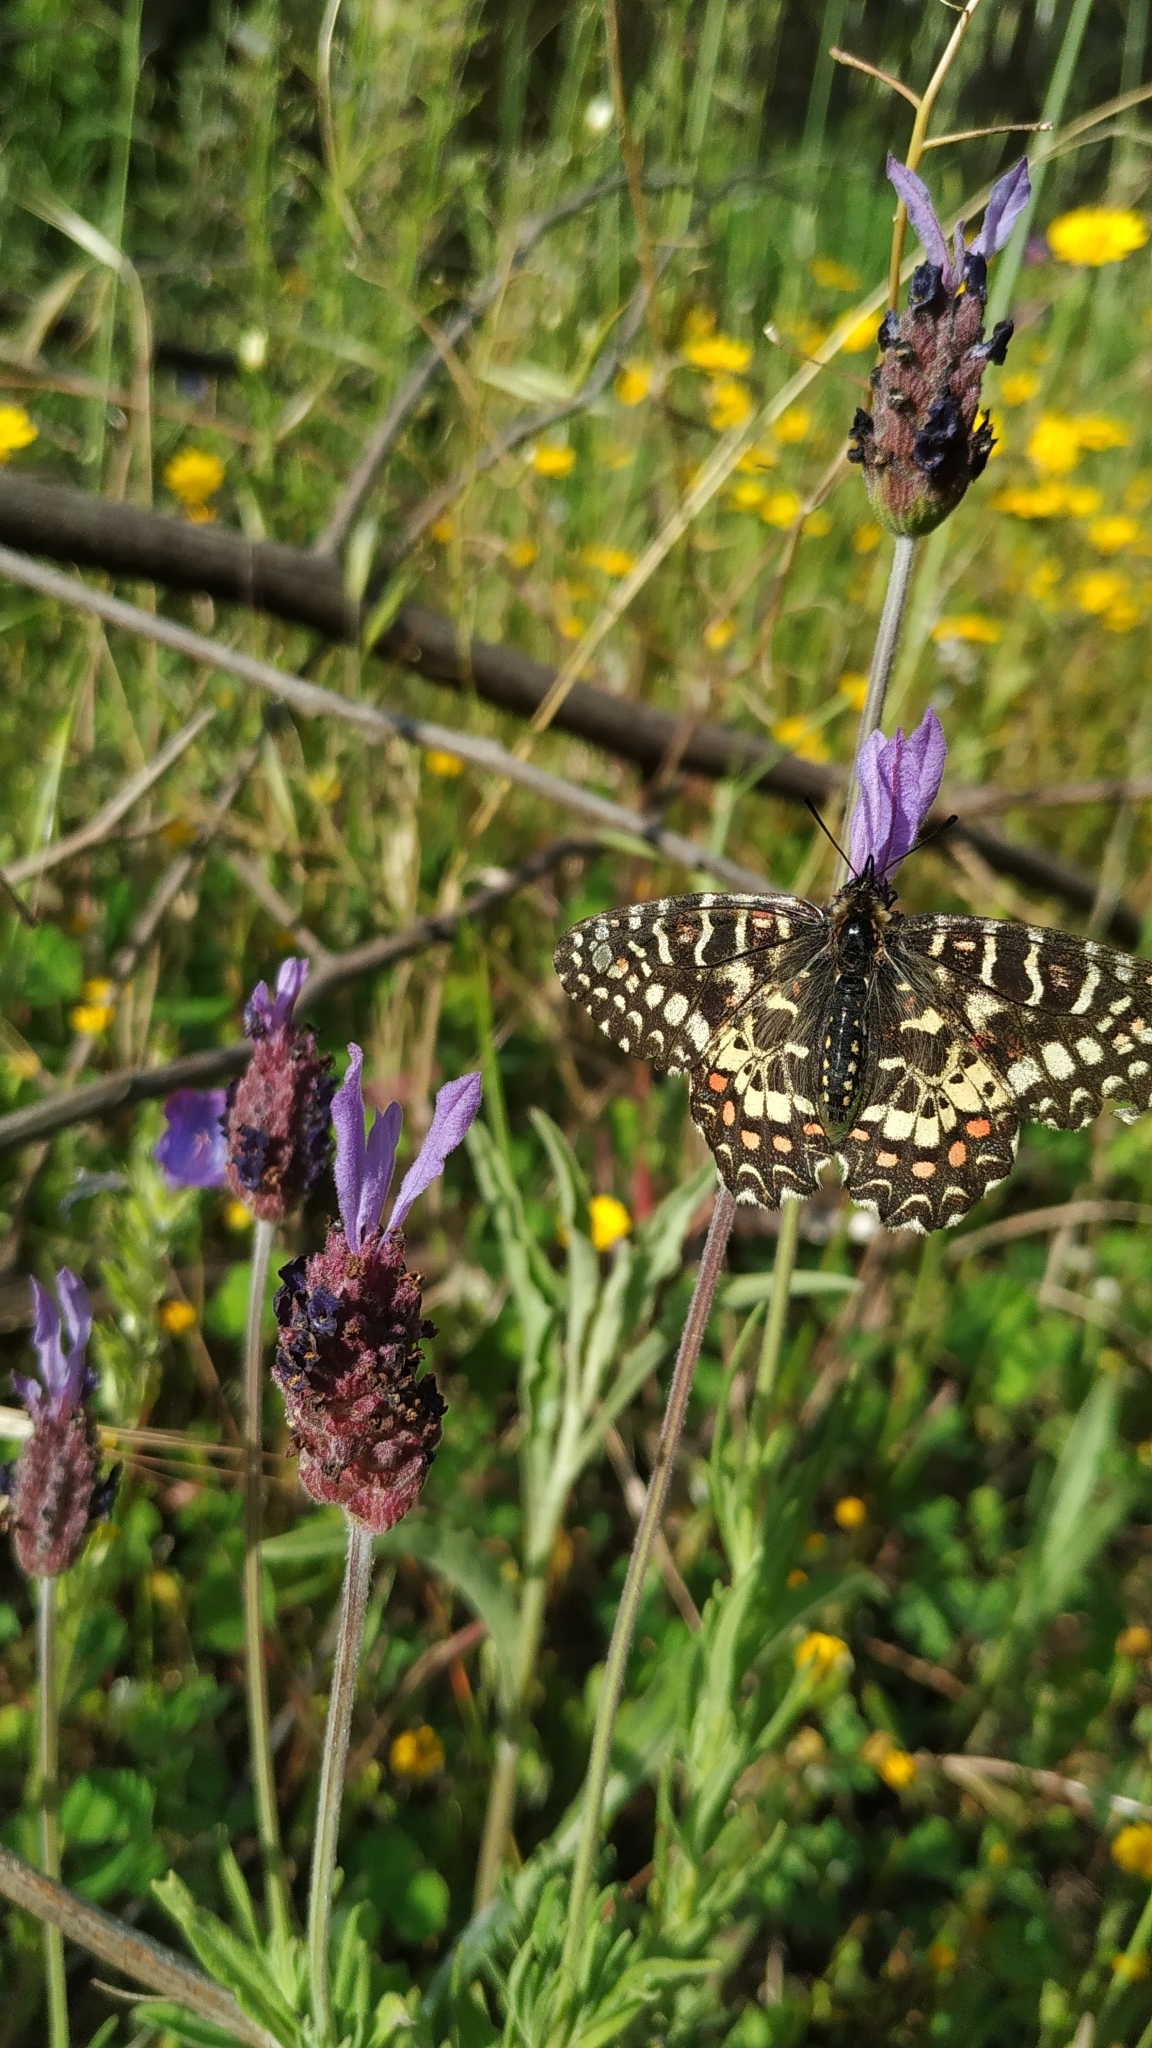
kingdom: Animalia
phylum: Arthropoda
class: Insecta
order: Lepidoptera
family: Papilionidae
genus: Zerynthia
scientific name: Zerynthia rumina
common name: Spanish festoon
